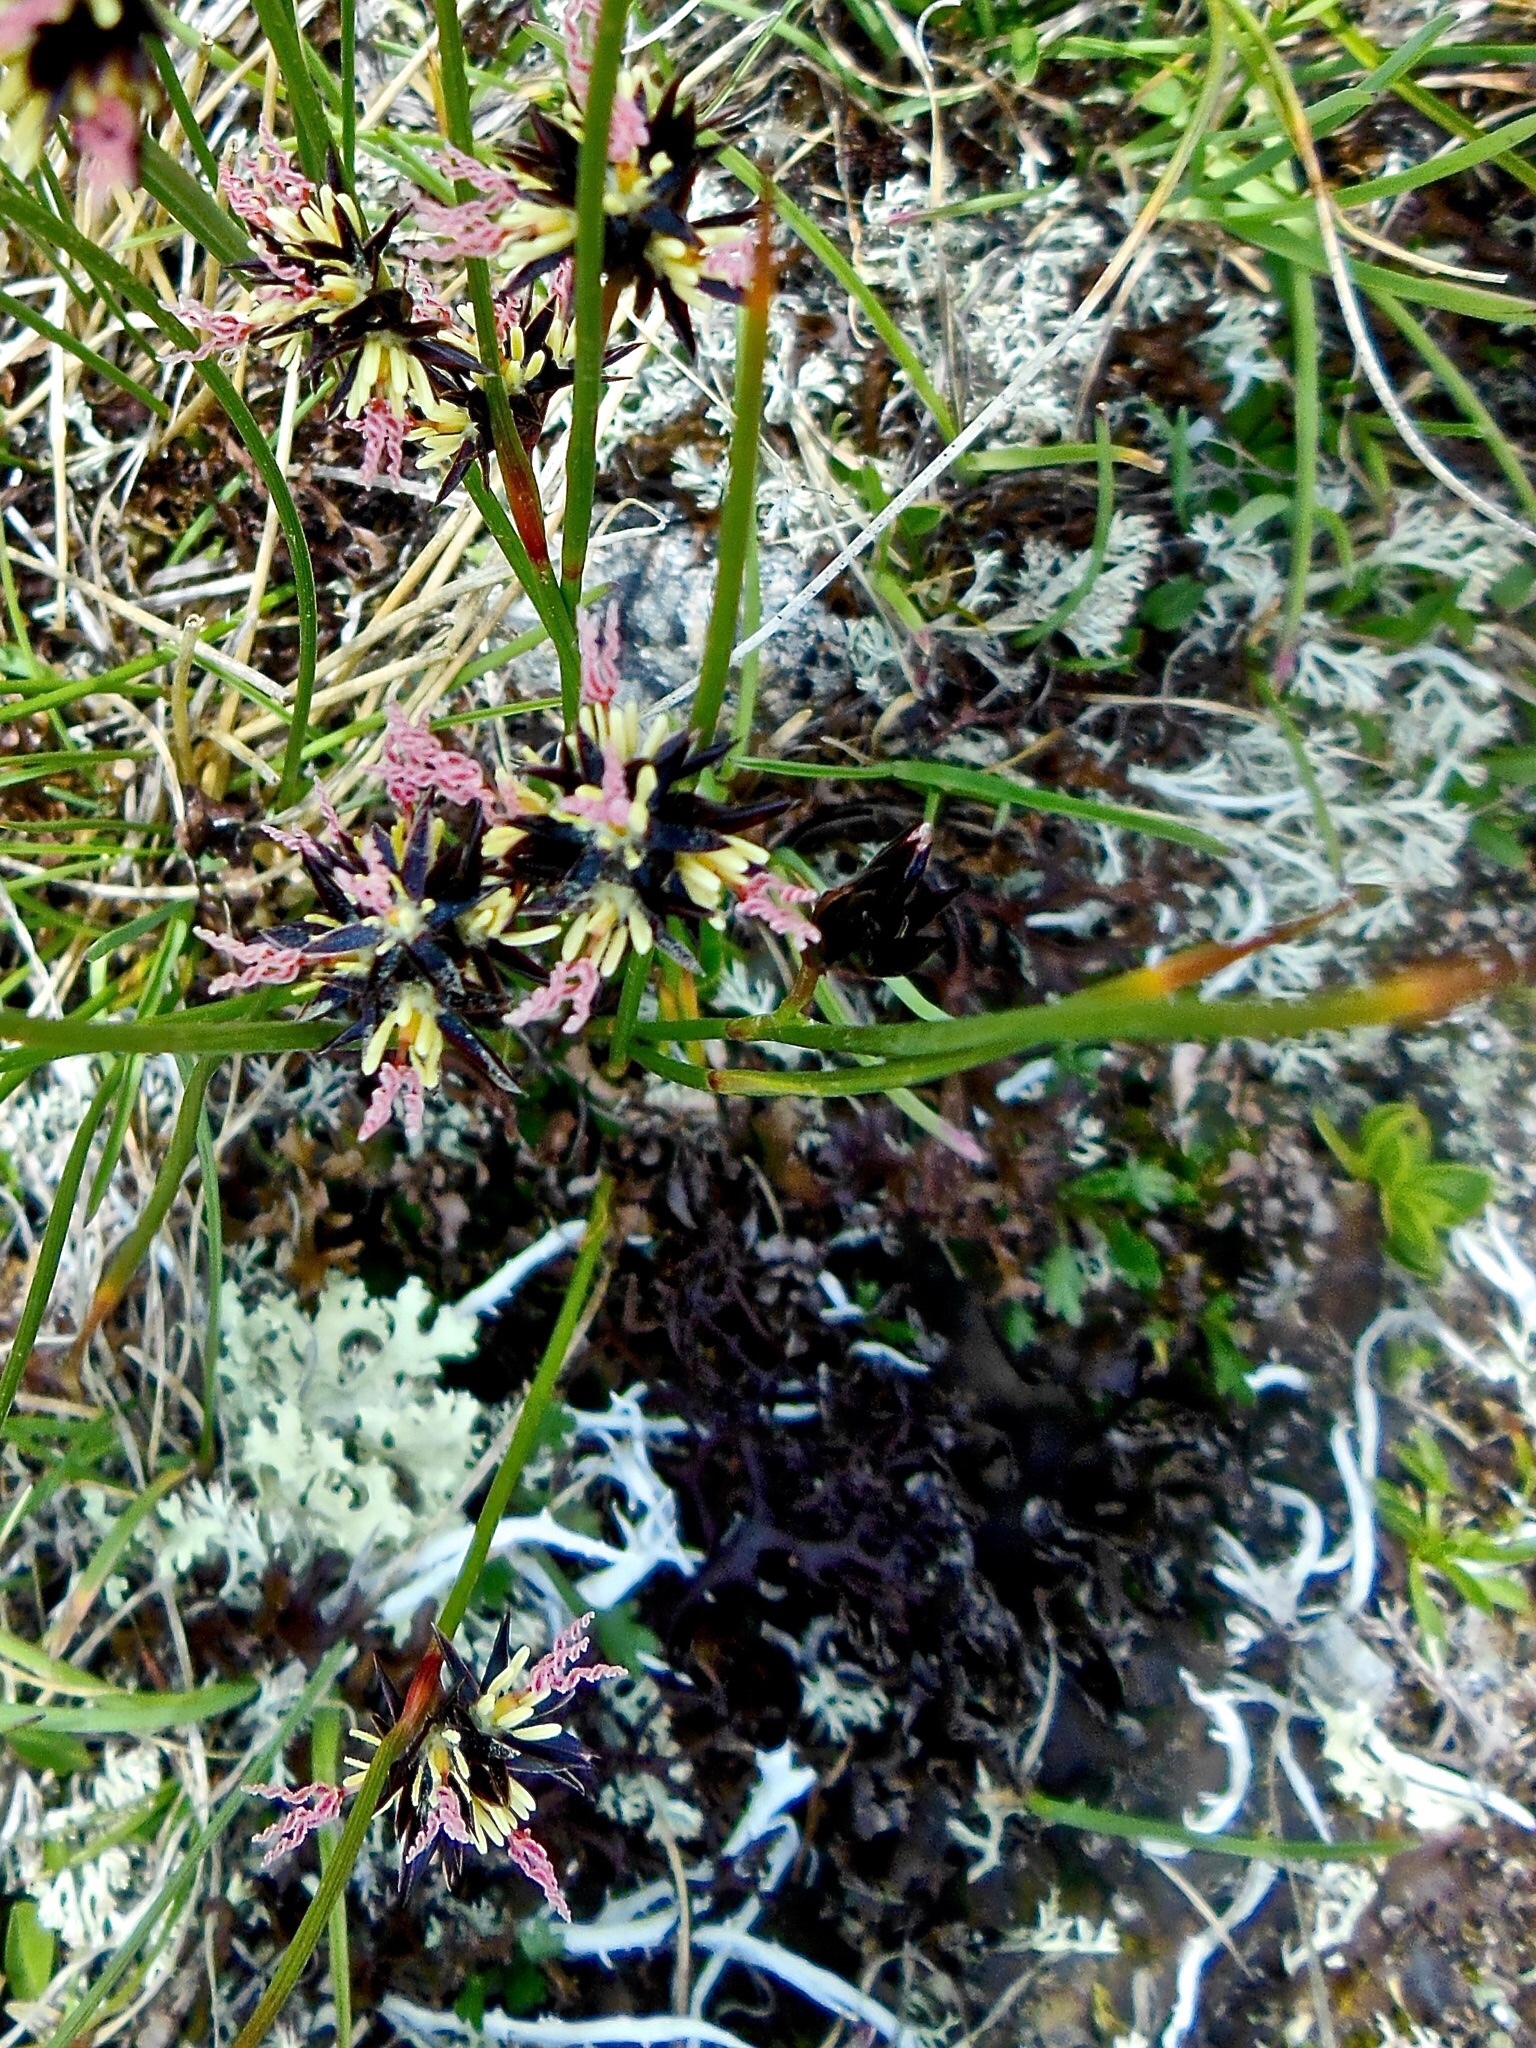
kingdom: Plantae
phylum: Tracheophyta
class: Liliopsida
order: Poales
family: Juncaceae
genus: Juncus
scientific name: Juncus jacquinii
